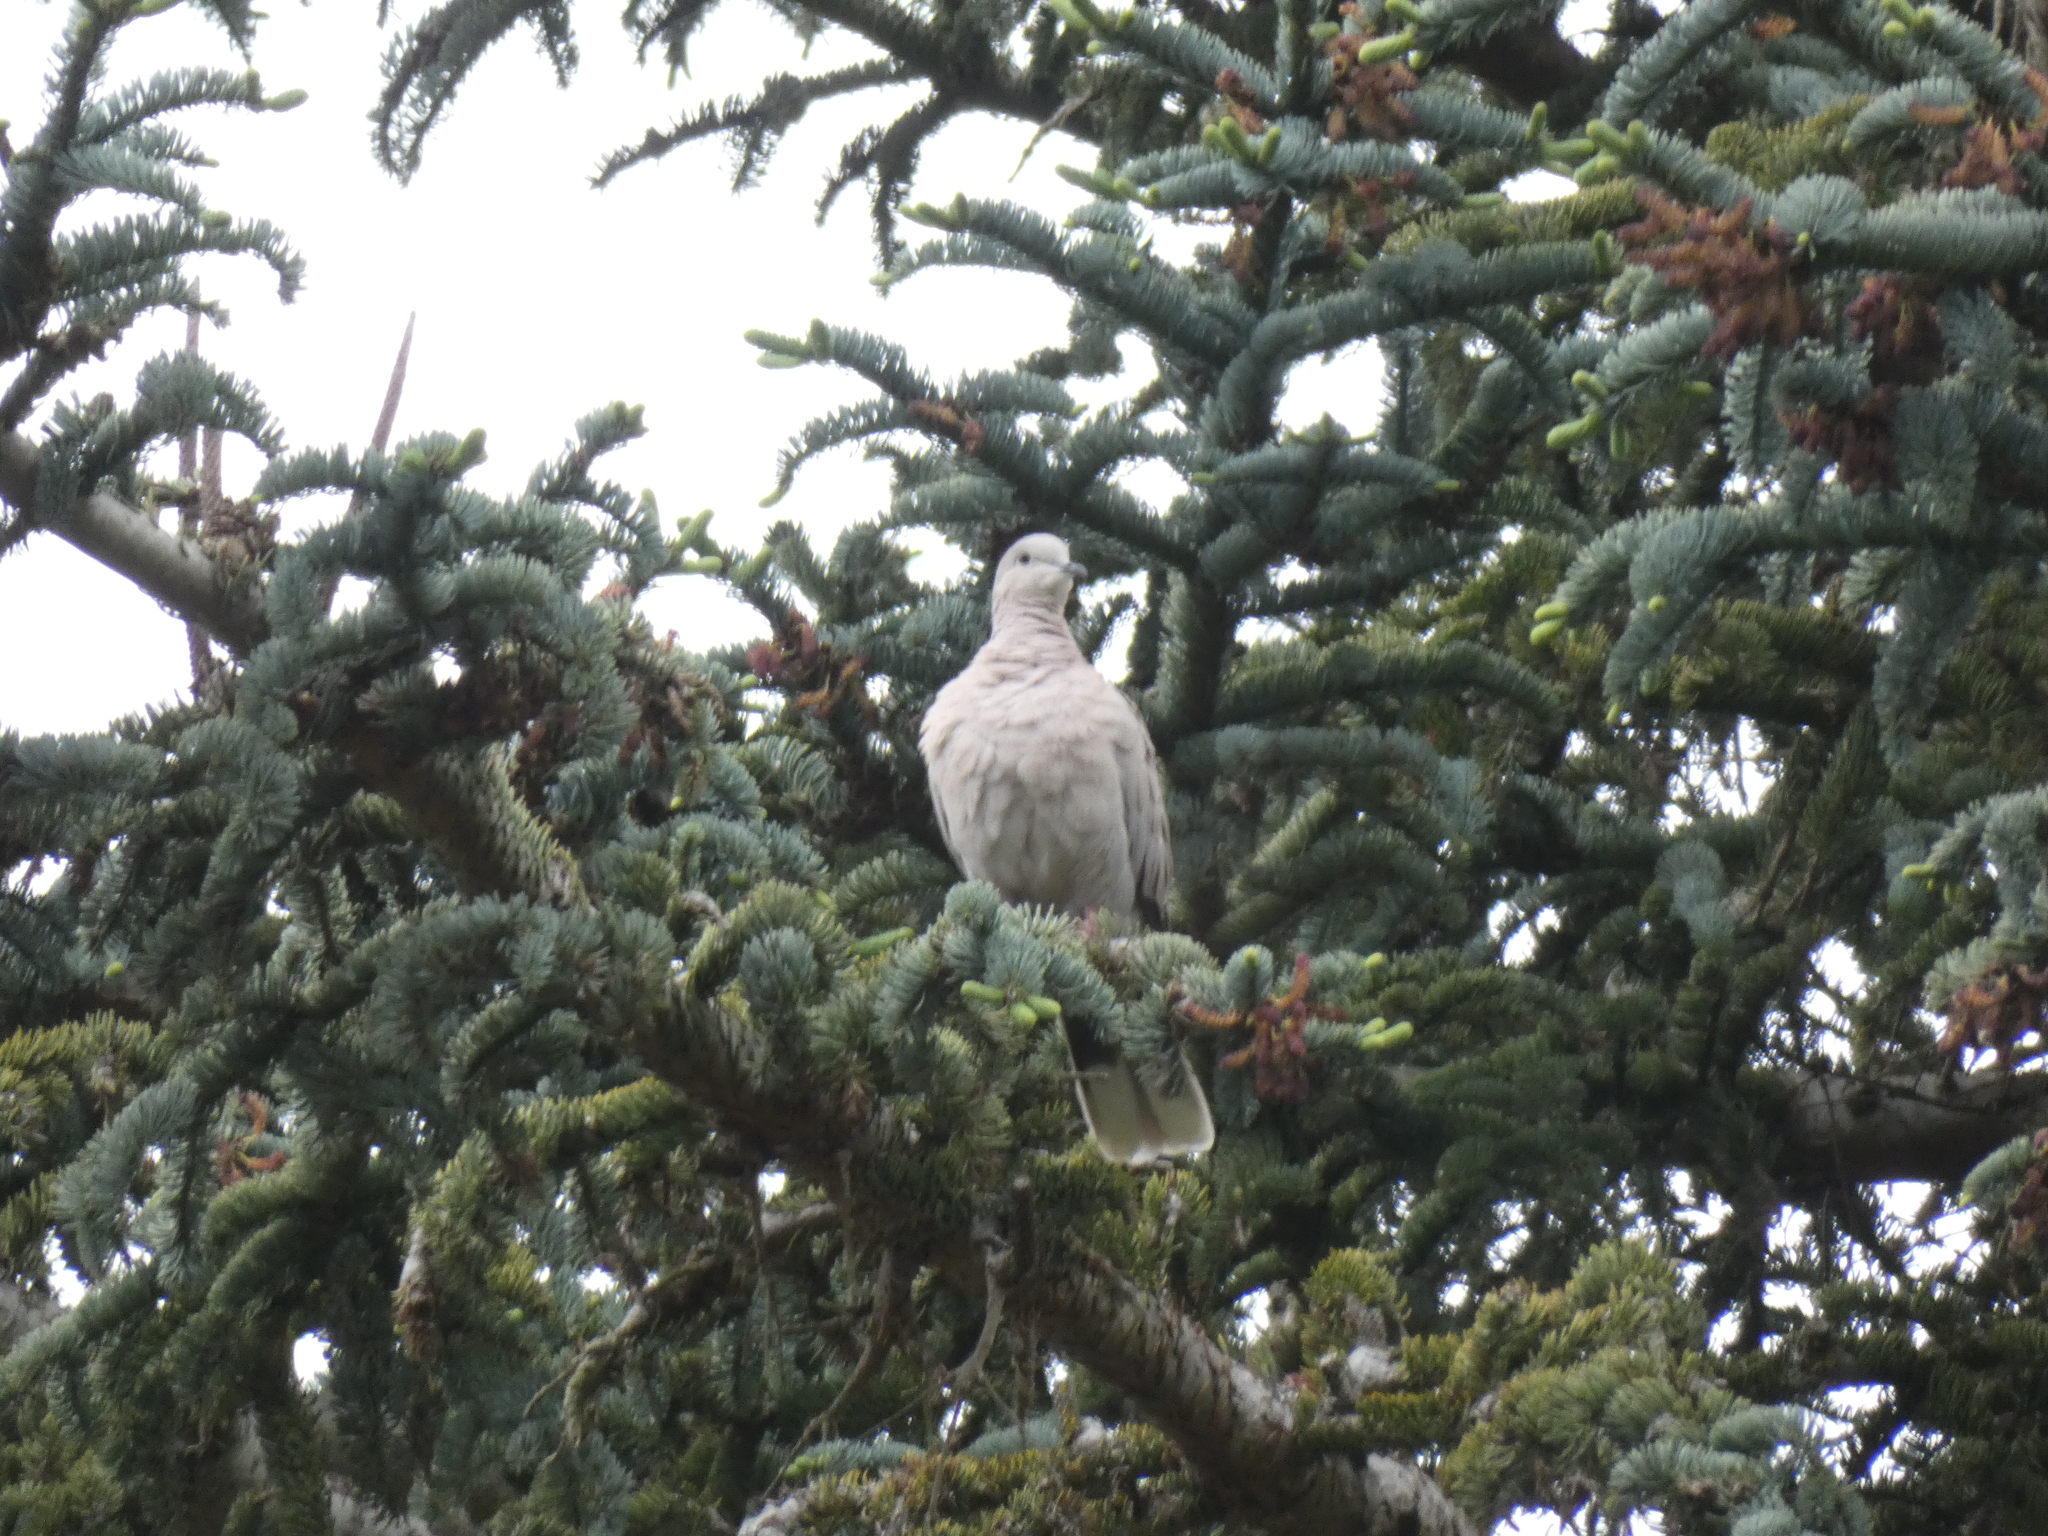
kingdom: Animalia
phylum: Chordata
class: Aves
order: Columbiformes
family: Columbidae
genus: Streptopelia
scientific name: Streptopelia decaocto
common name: Eurasian collared dove
